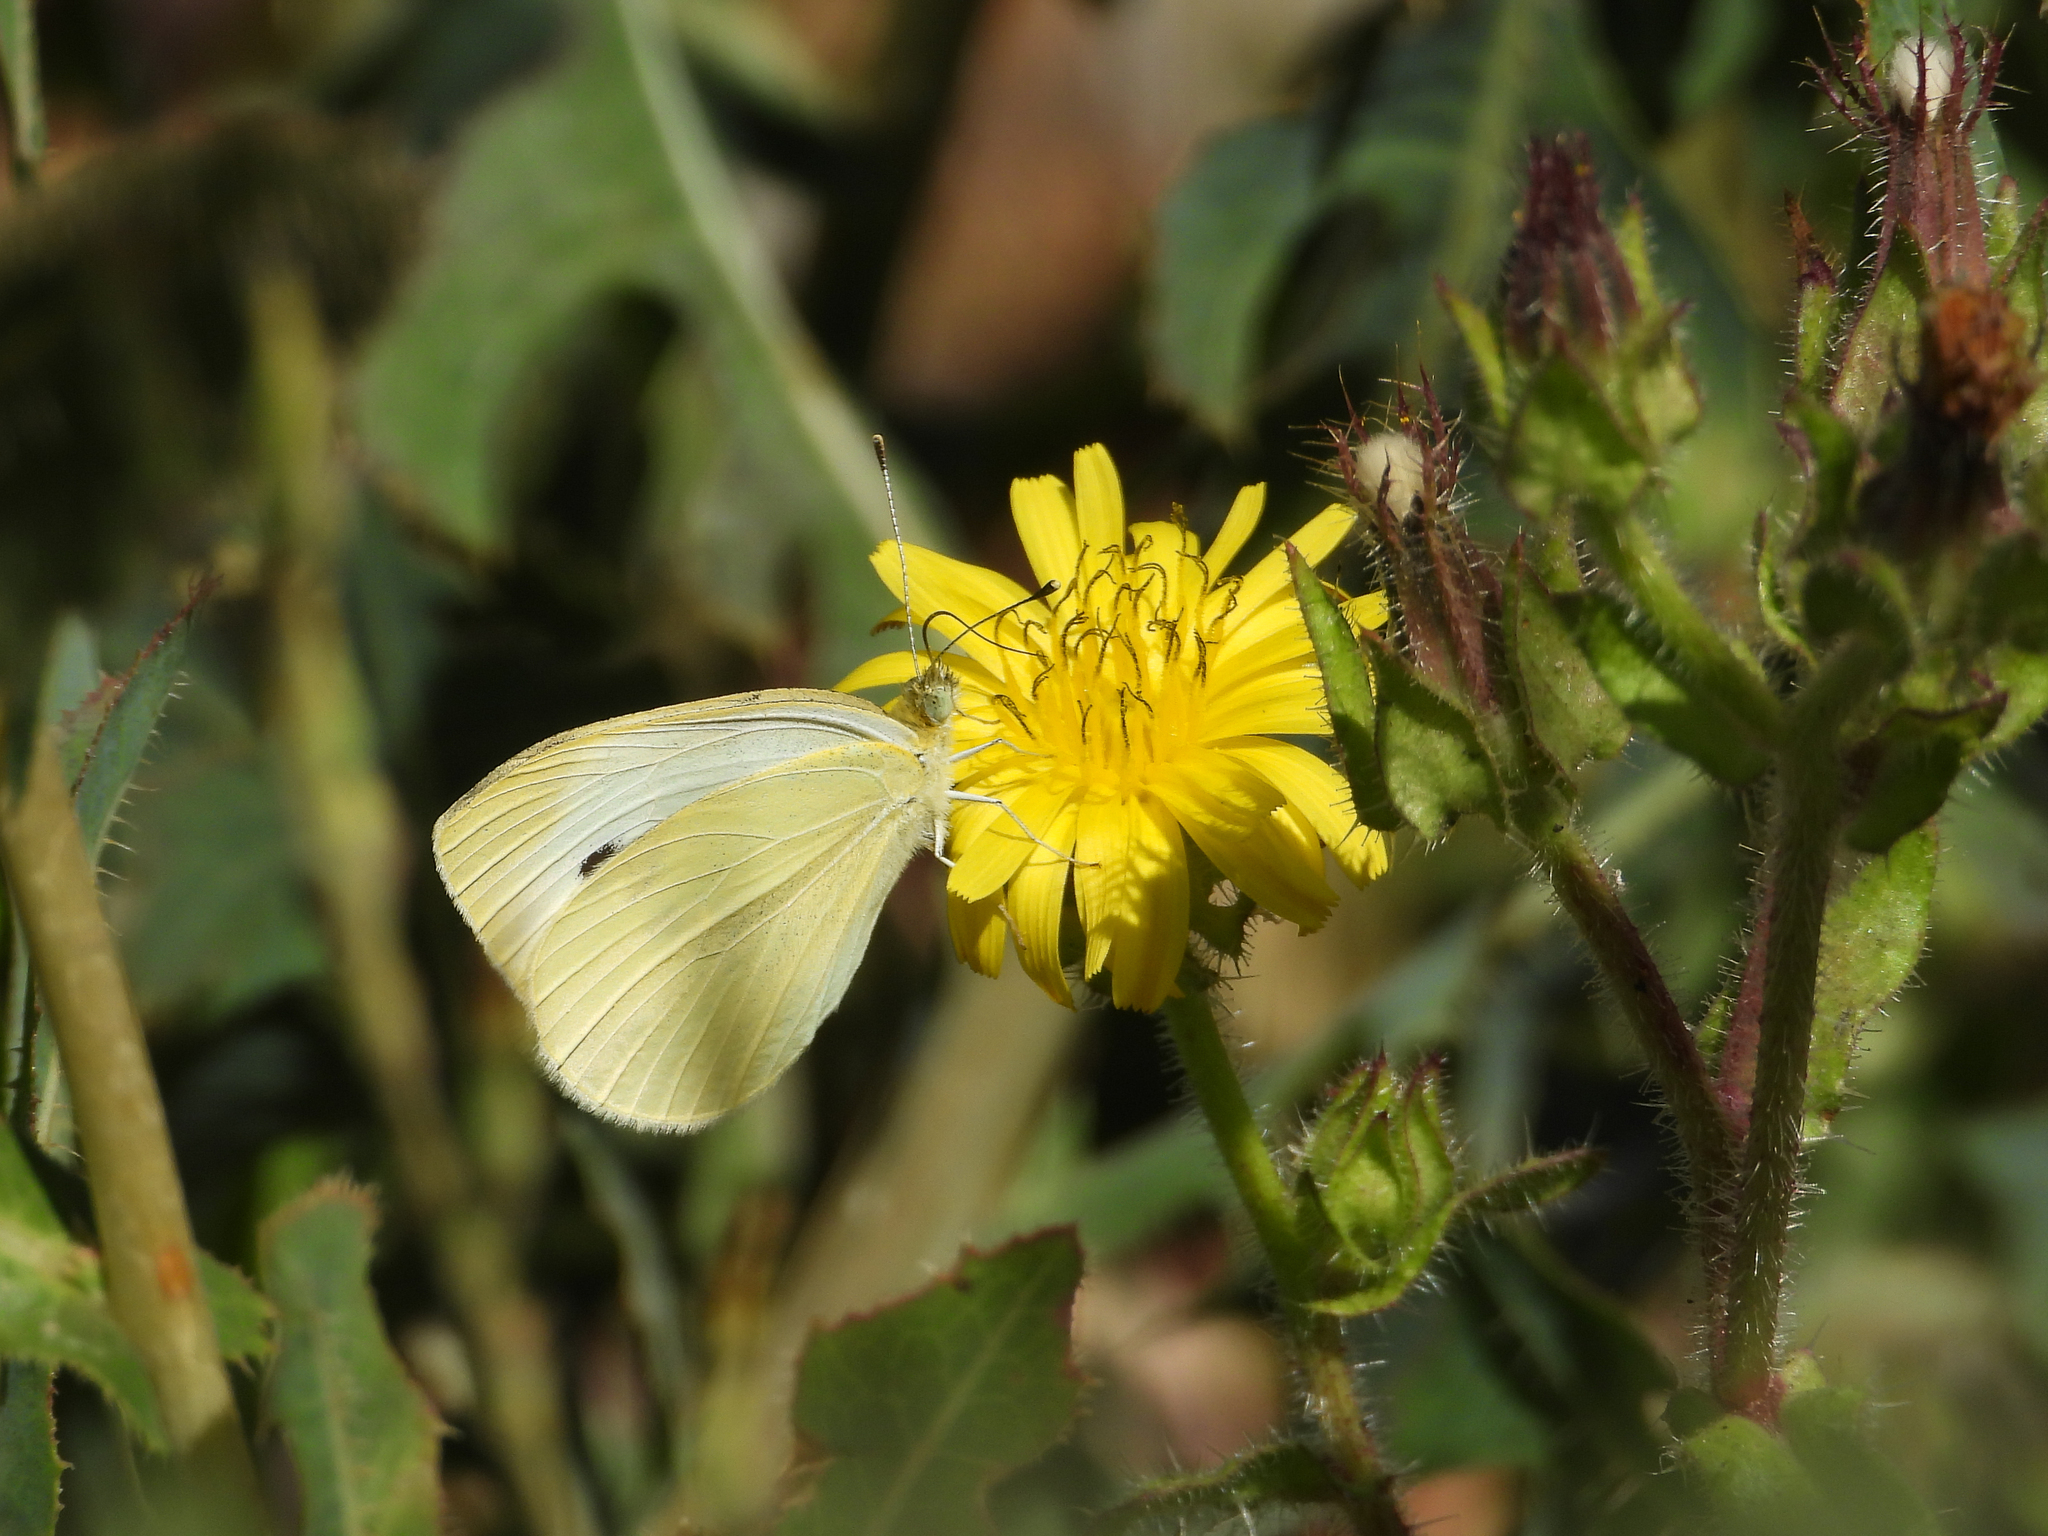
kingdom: Animalia
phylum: Arthropoda
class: Insecta
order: Lepidoptera
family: Pieridae
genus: Pieris
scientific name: Pieris rapae
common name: Small white
